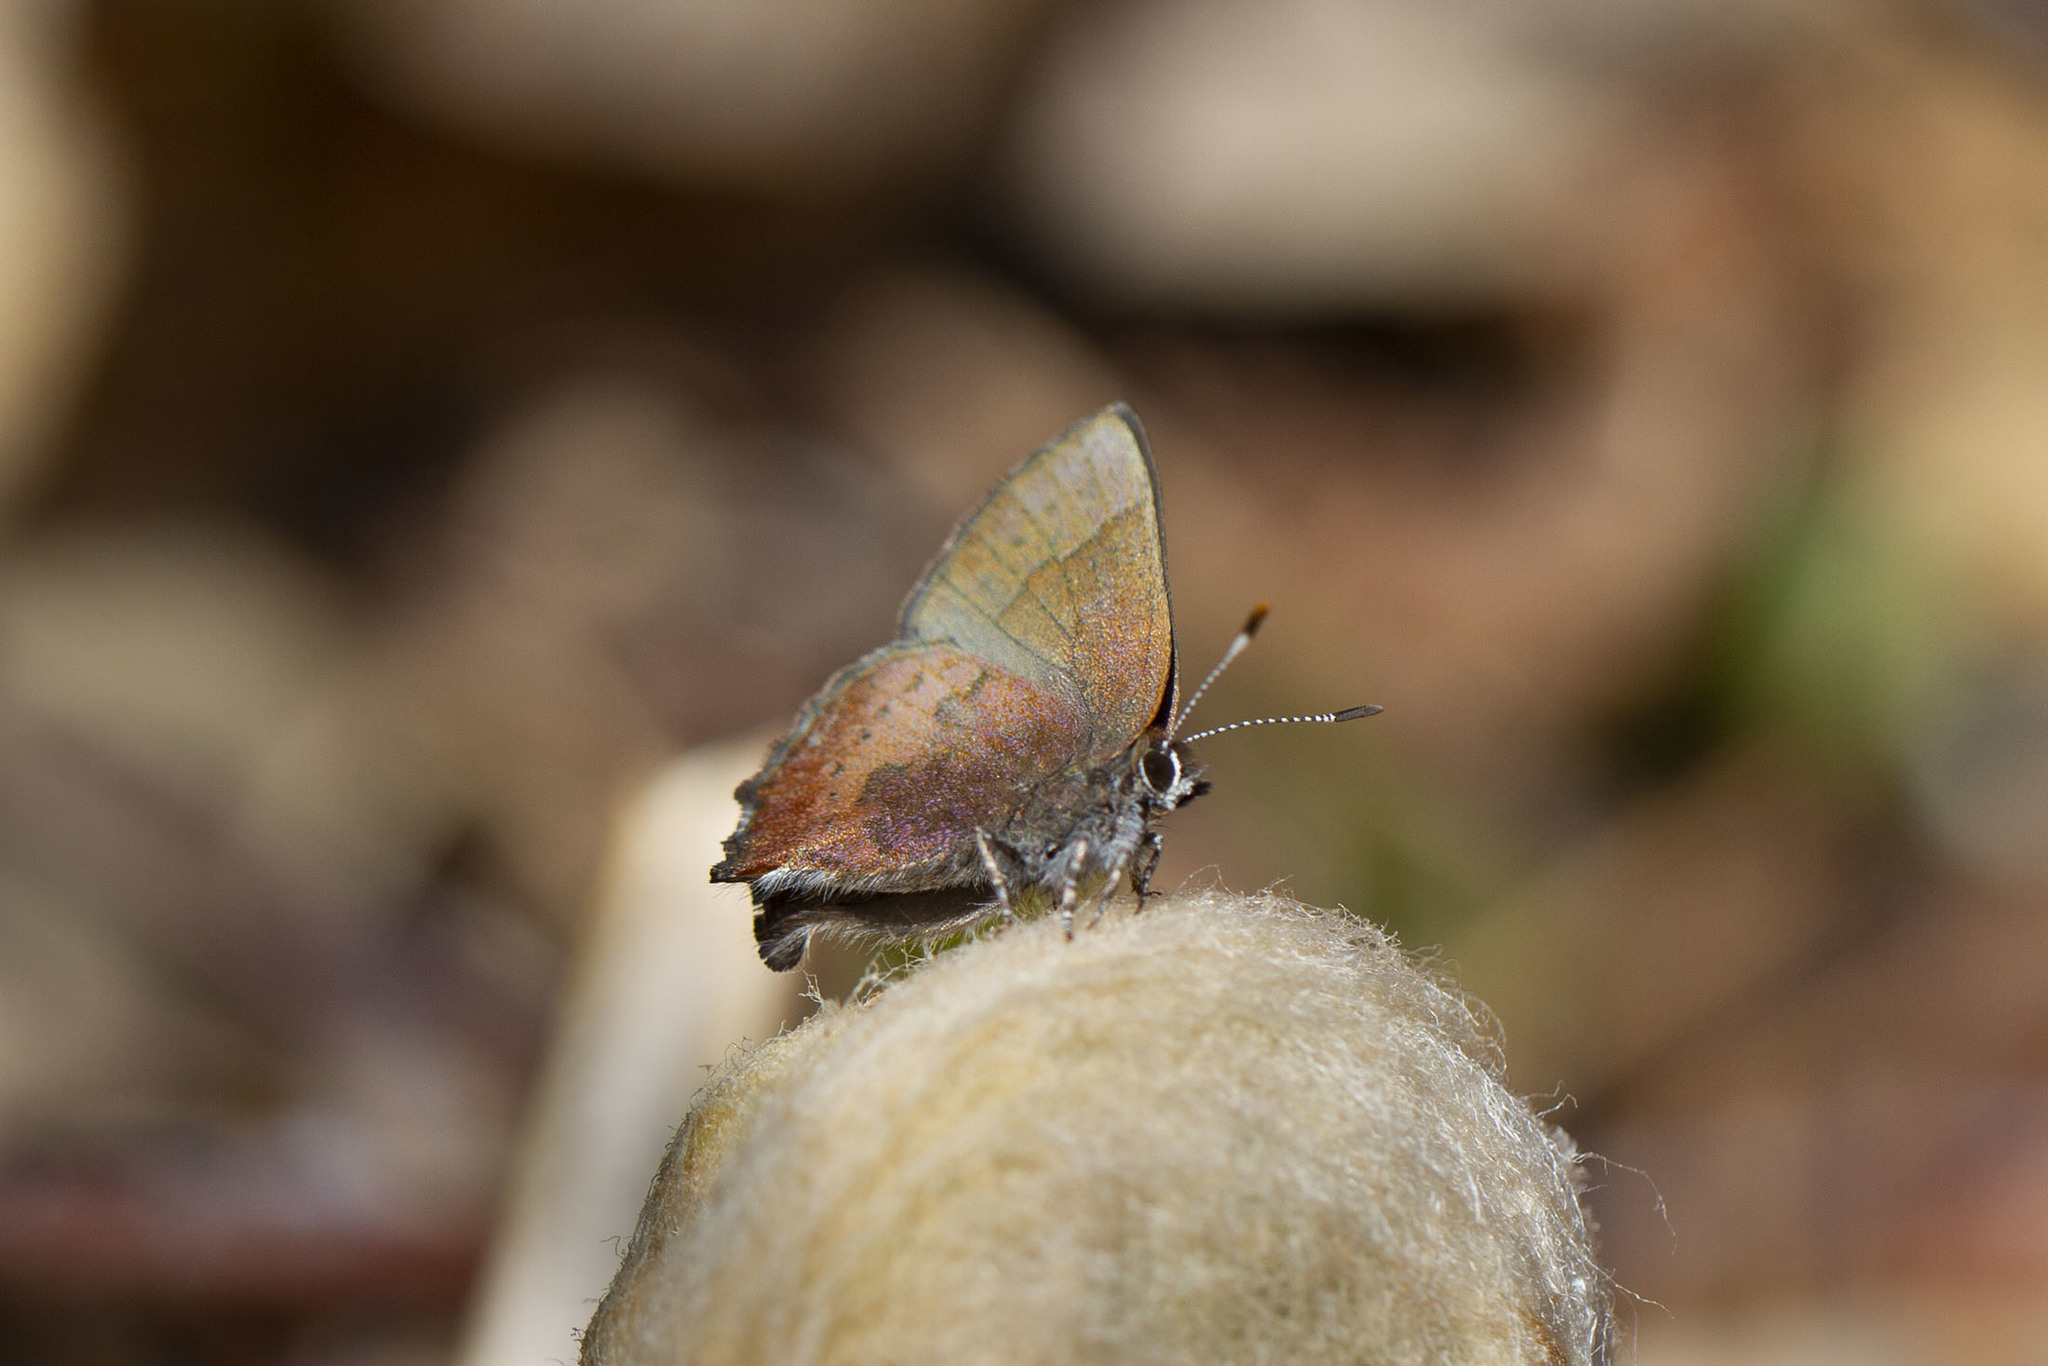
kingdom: Animalia
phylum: Arthropoda
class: Insecta
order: Lepidoptera
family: Lycaenidae
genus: Incisalia
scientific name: Incisalia irioides
